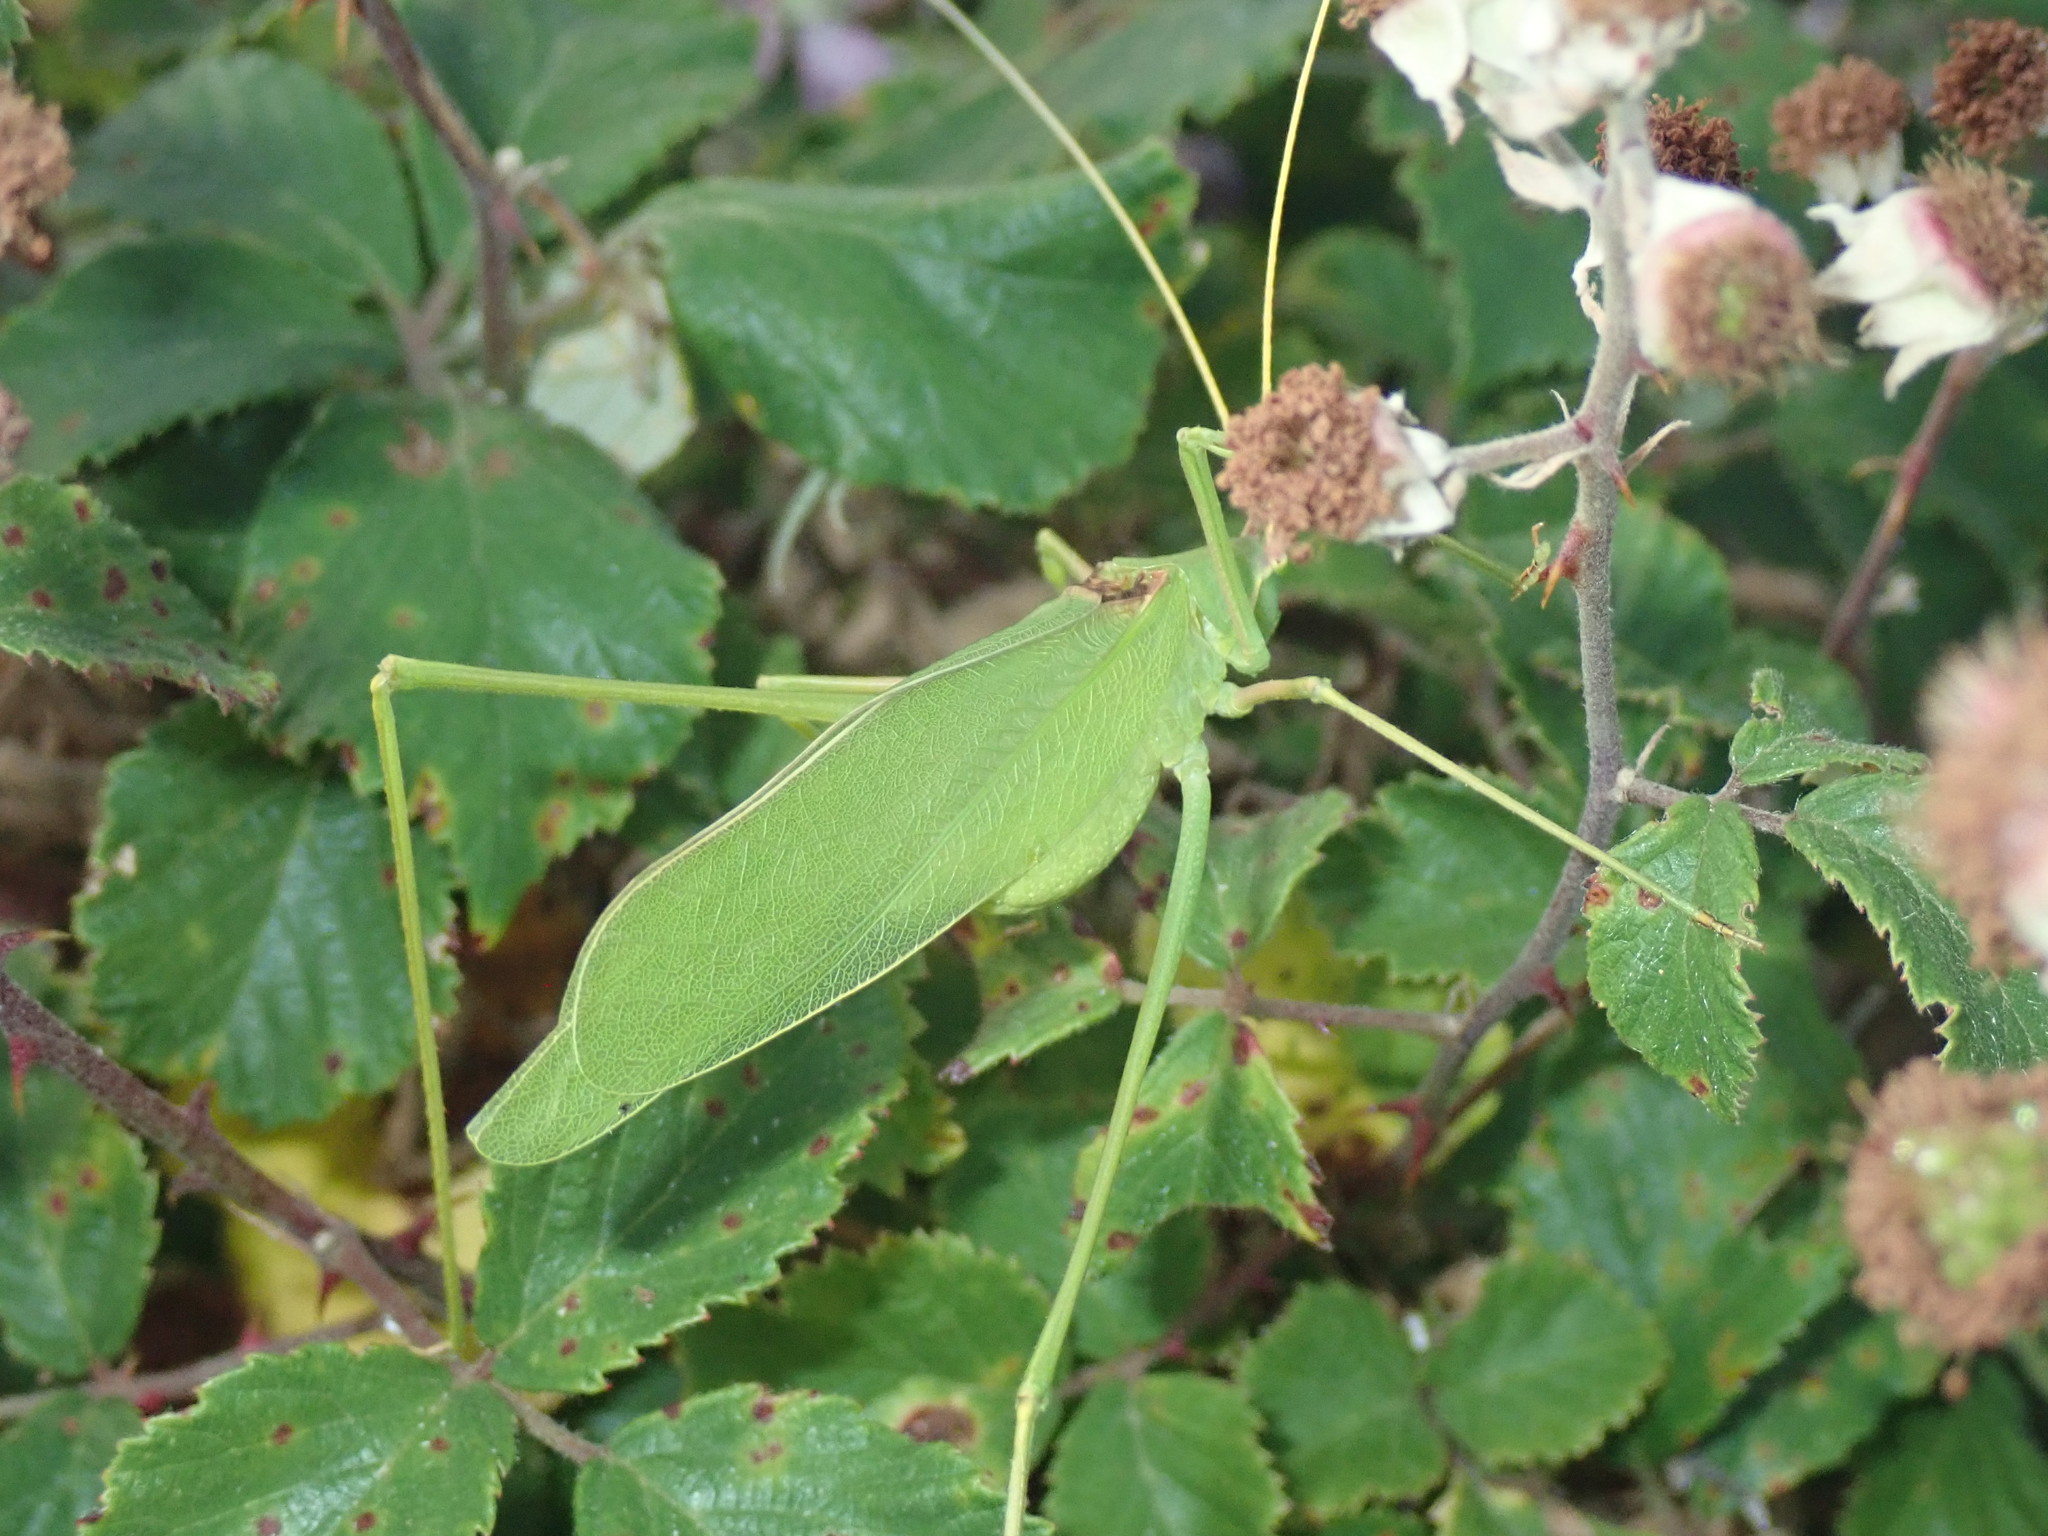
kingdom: Animalia
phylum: Arthropoda
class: Insecta
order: Orthoptera
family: Tettigoniidae
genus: Acrometopa
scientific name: Acrometopa macropoda
